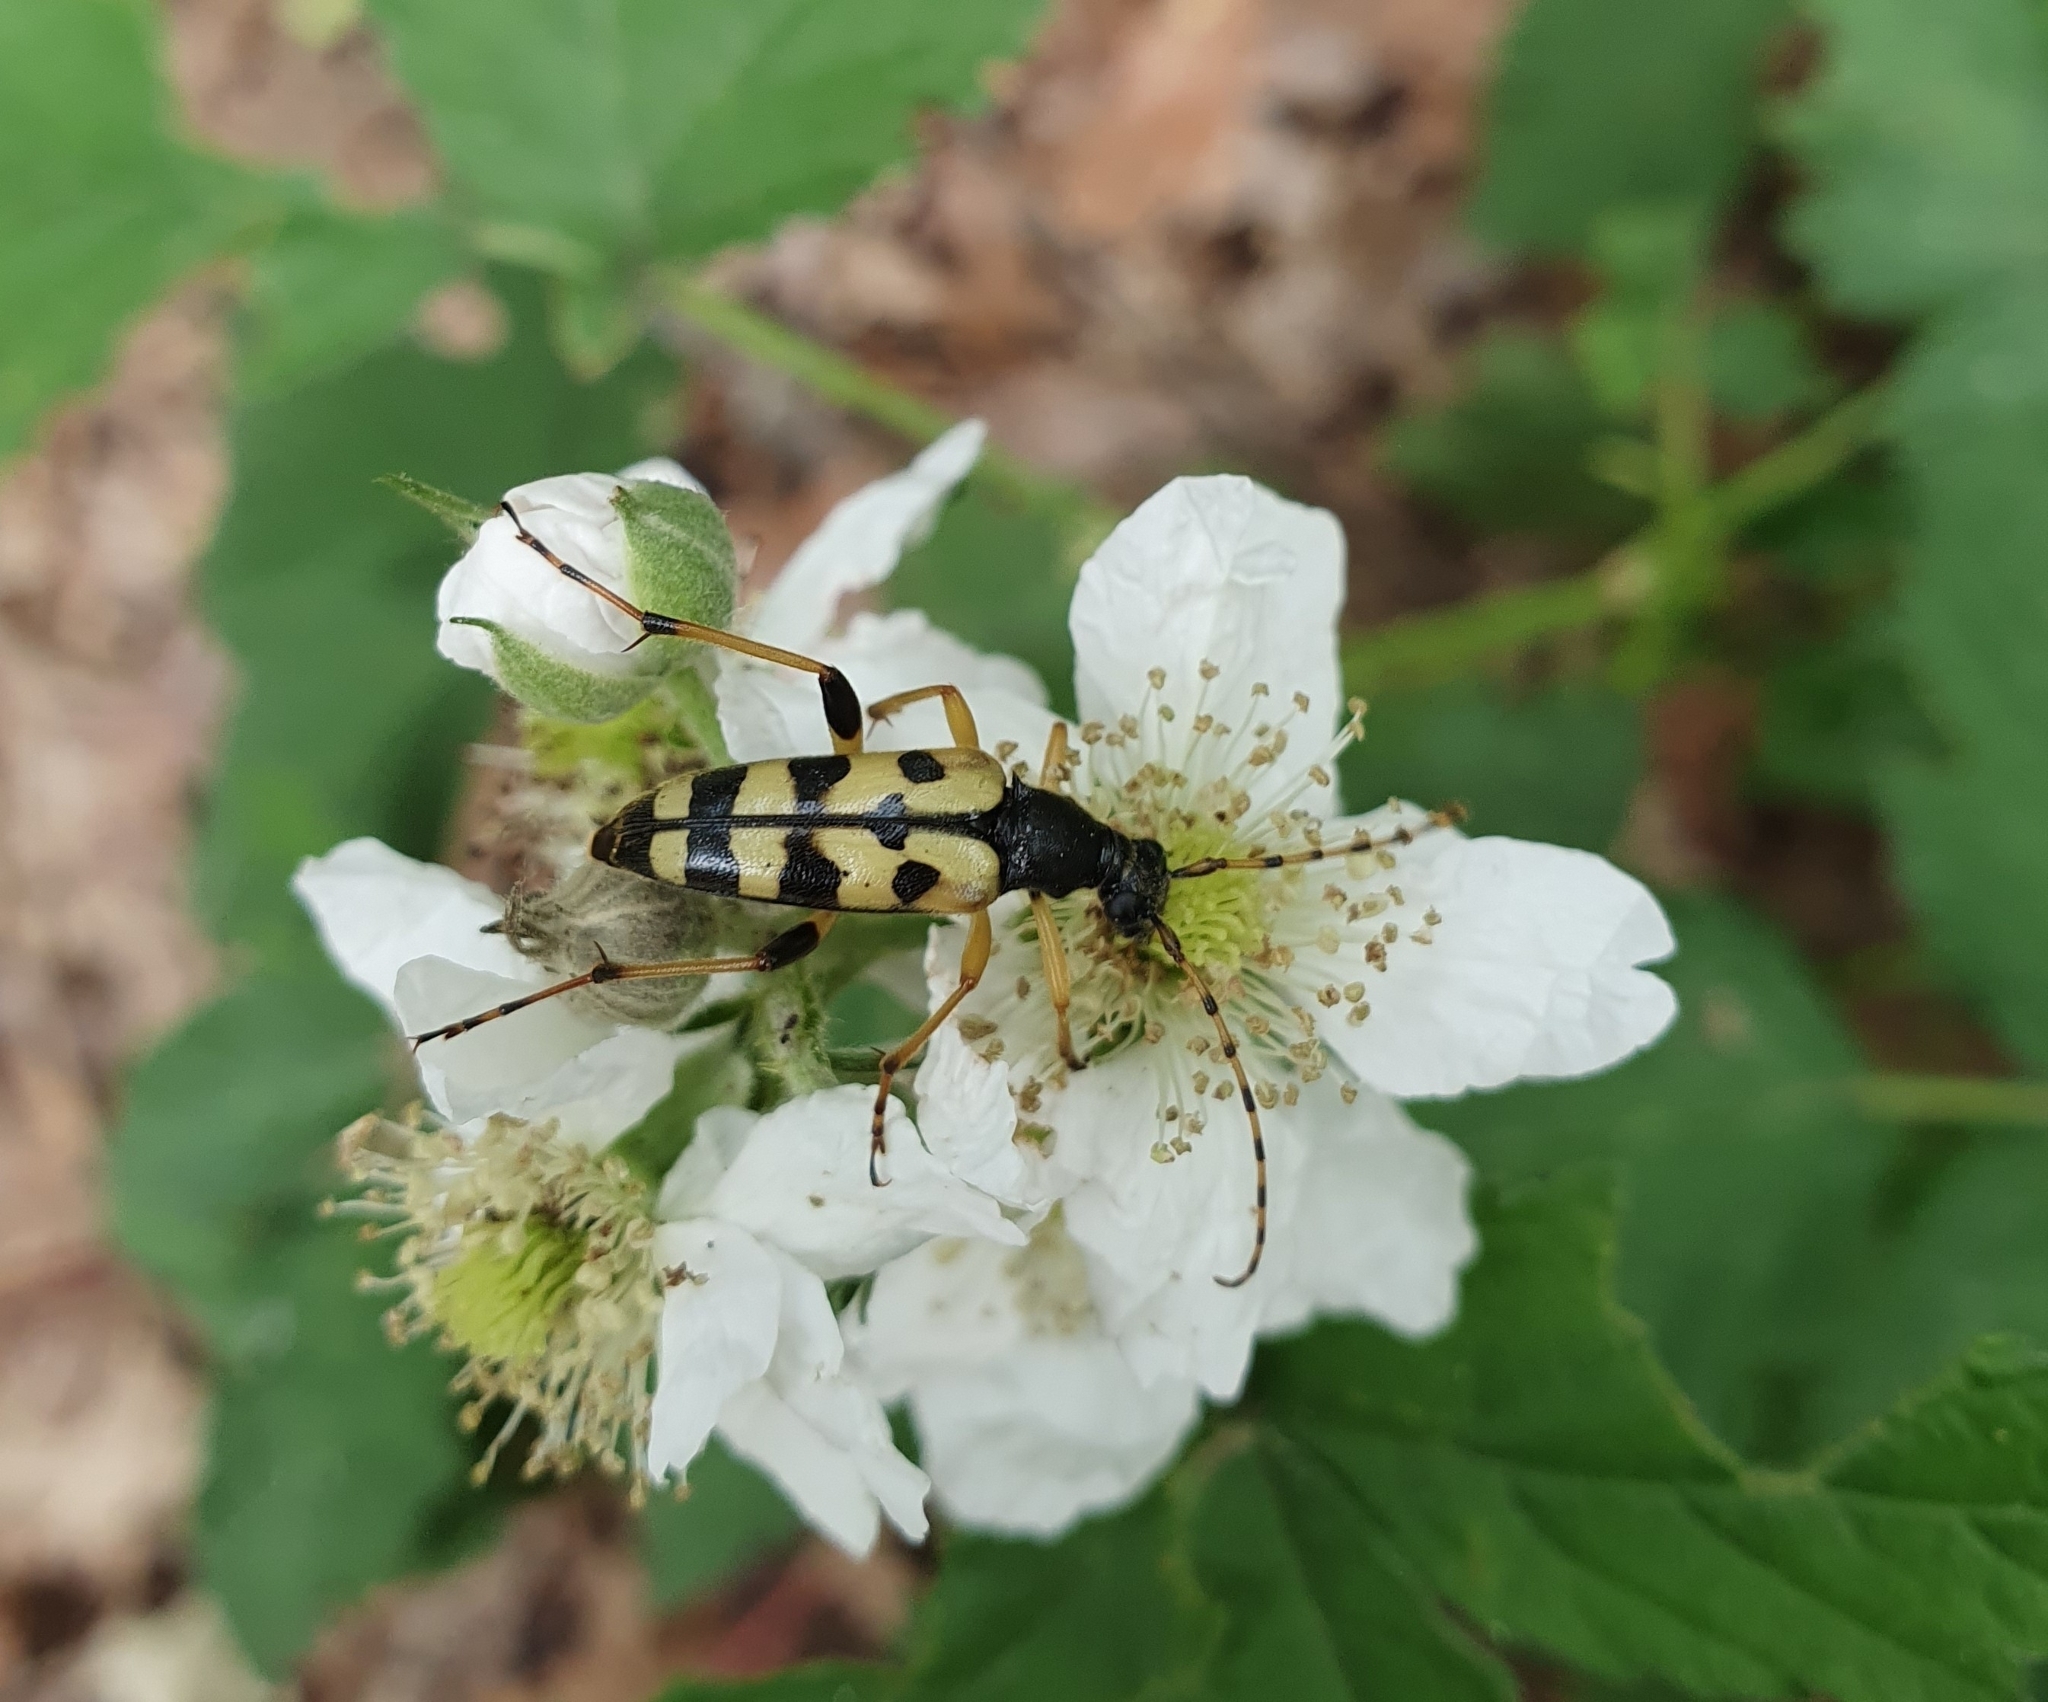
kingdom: Animalia
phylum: Arthropoda
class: Insecta
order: Coleoptera
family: Cerambycidae
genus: Rutpela
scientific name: Rutpela maculata
